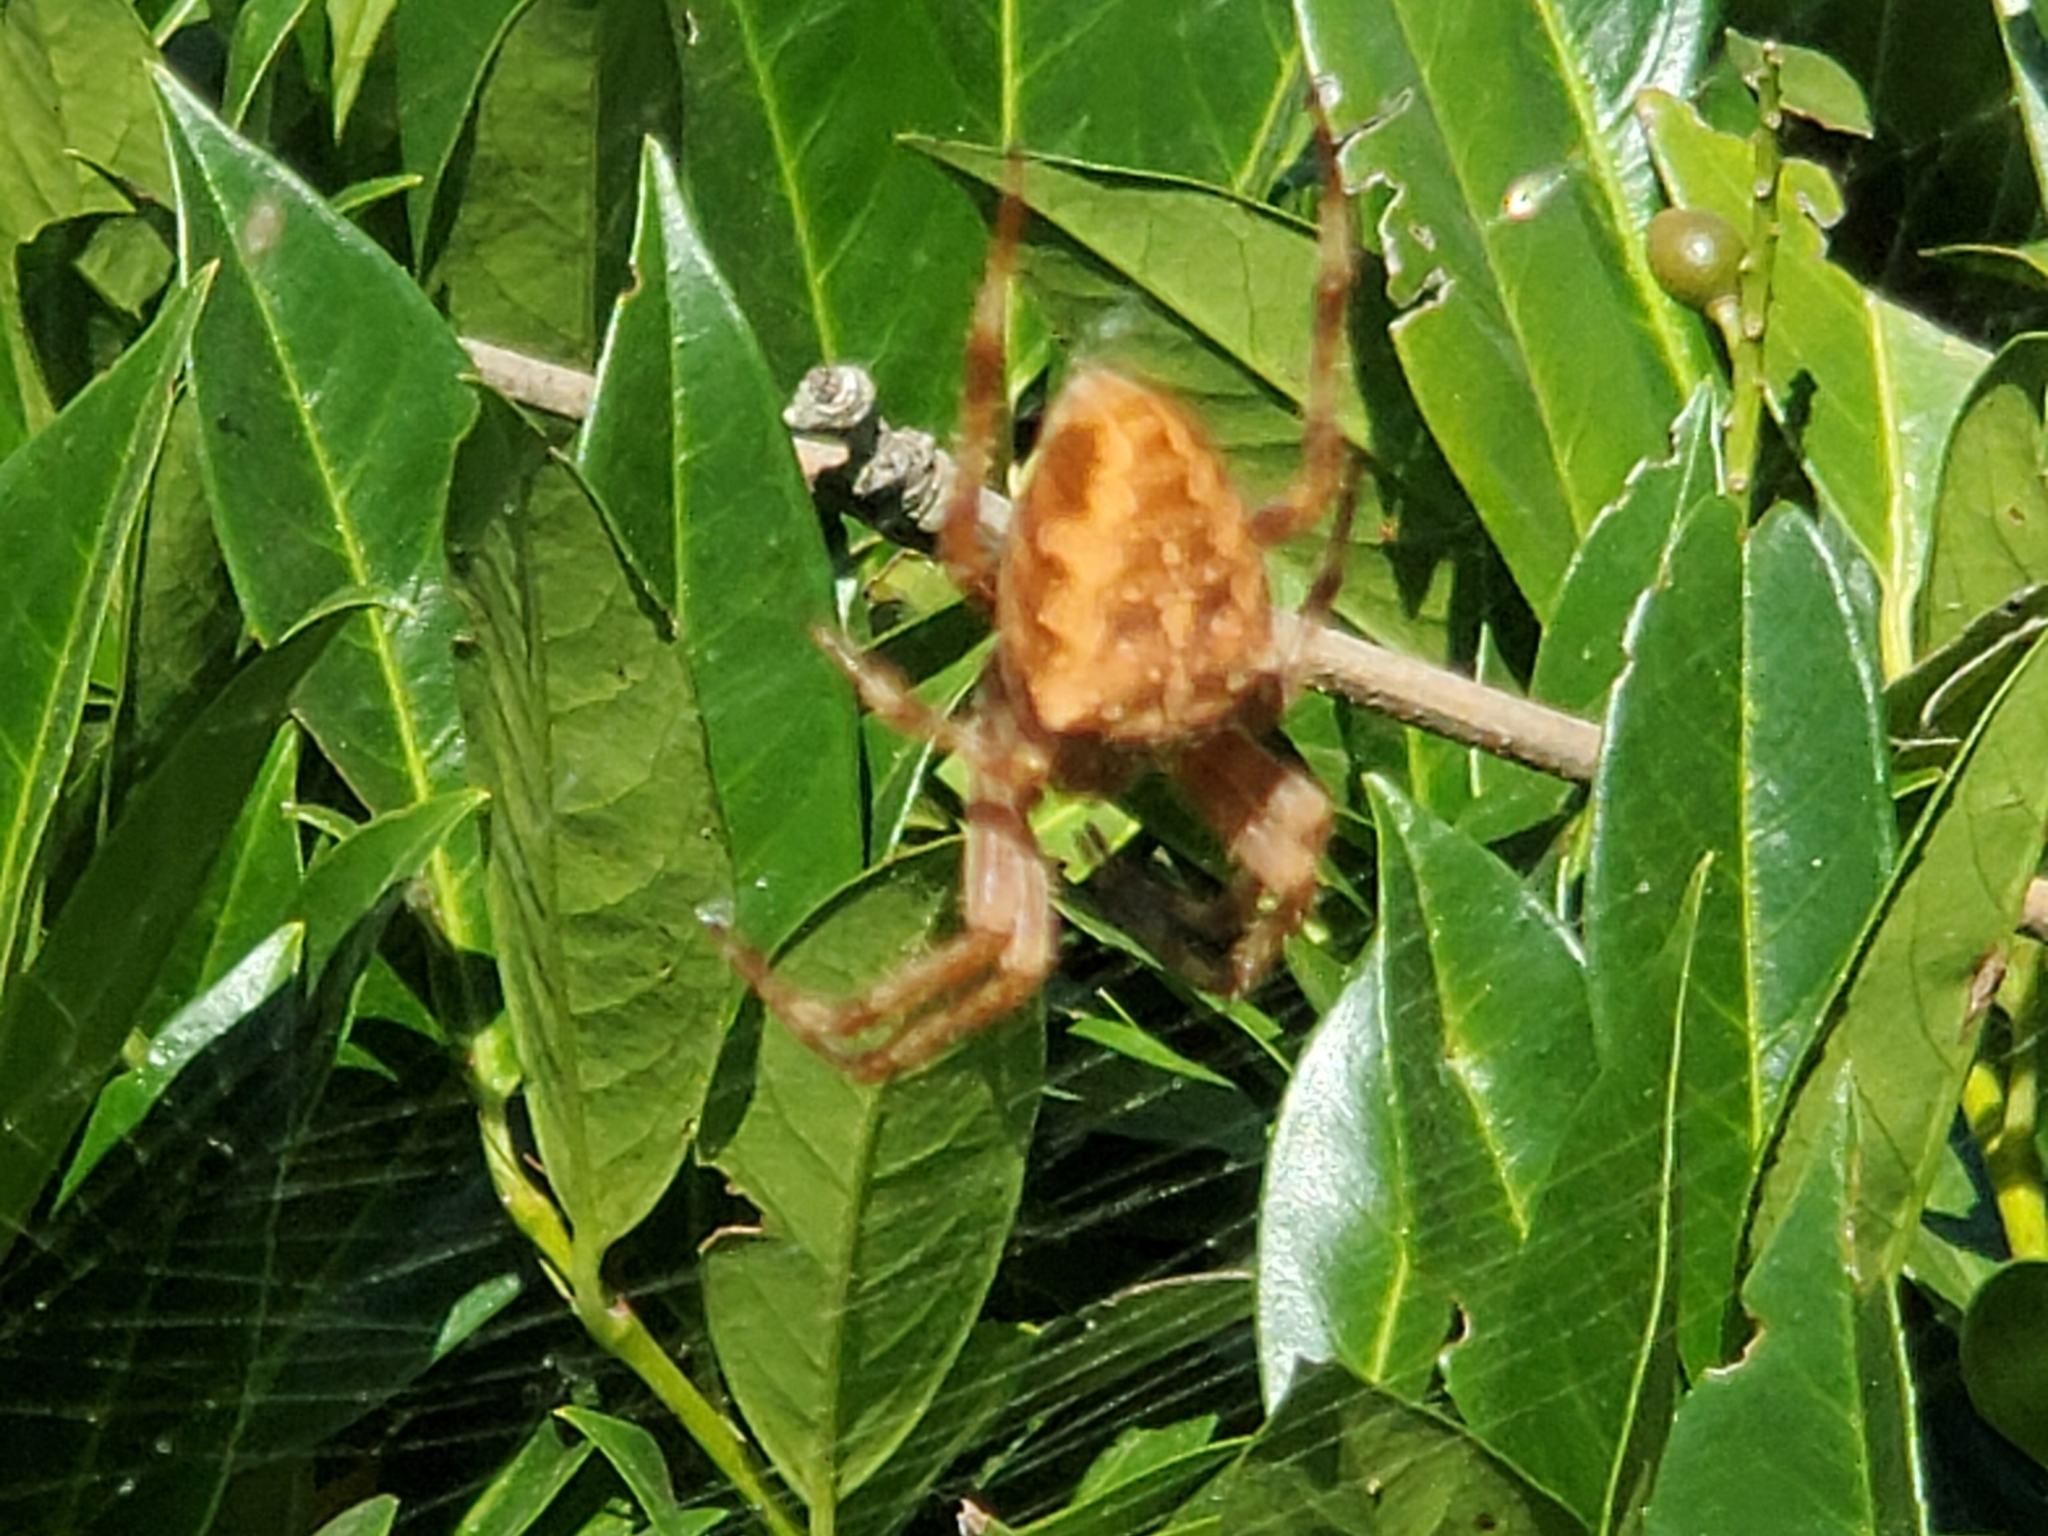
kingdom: Animalia
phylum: Arthropoda
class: Arachnida
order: Araneae
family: Araneidae
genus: Araneus
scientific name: Araneus diadematus
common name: Cross orbweaver
